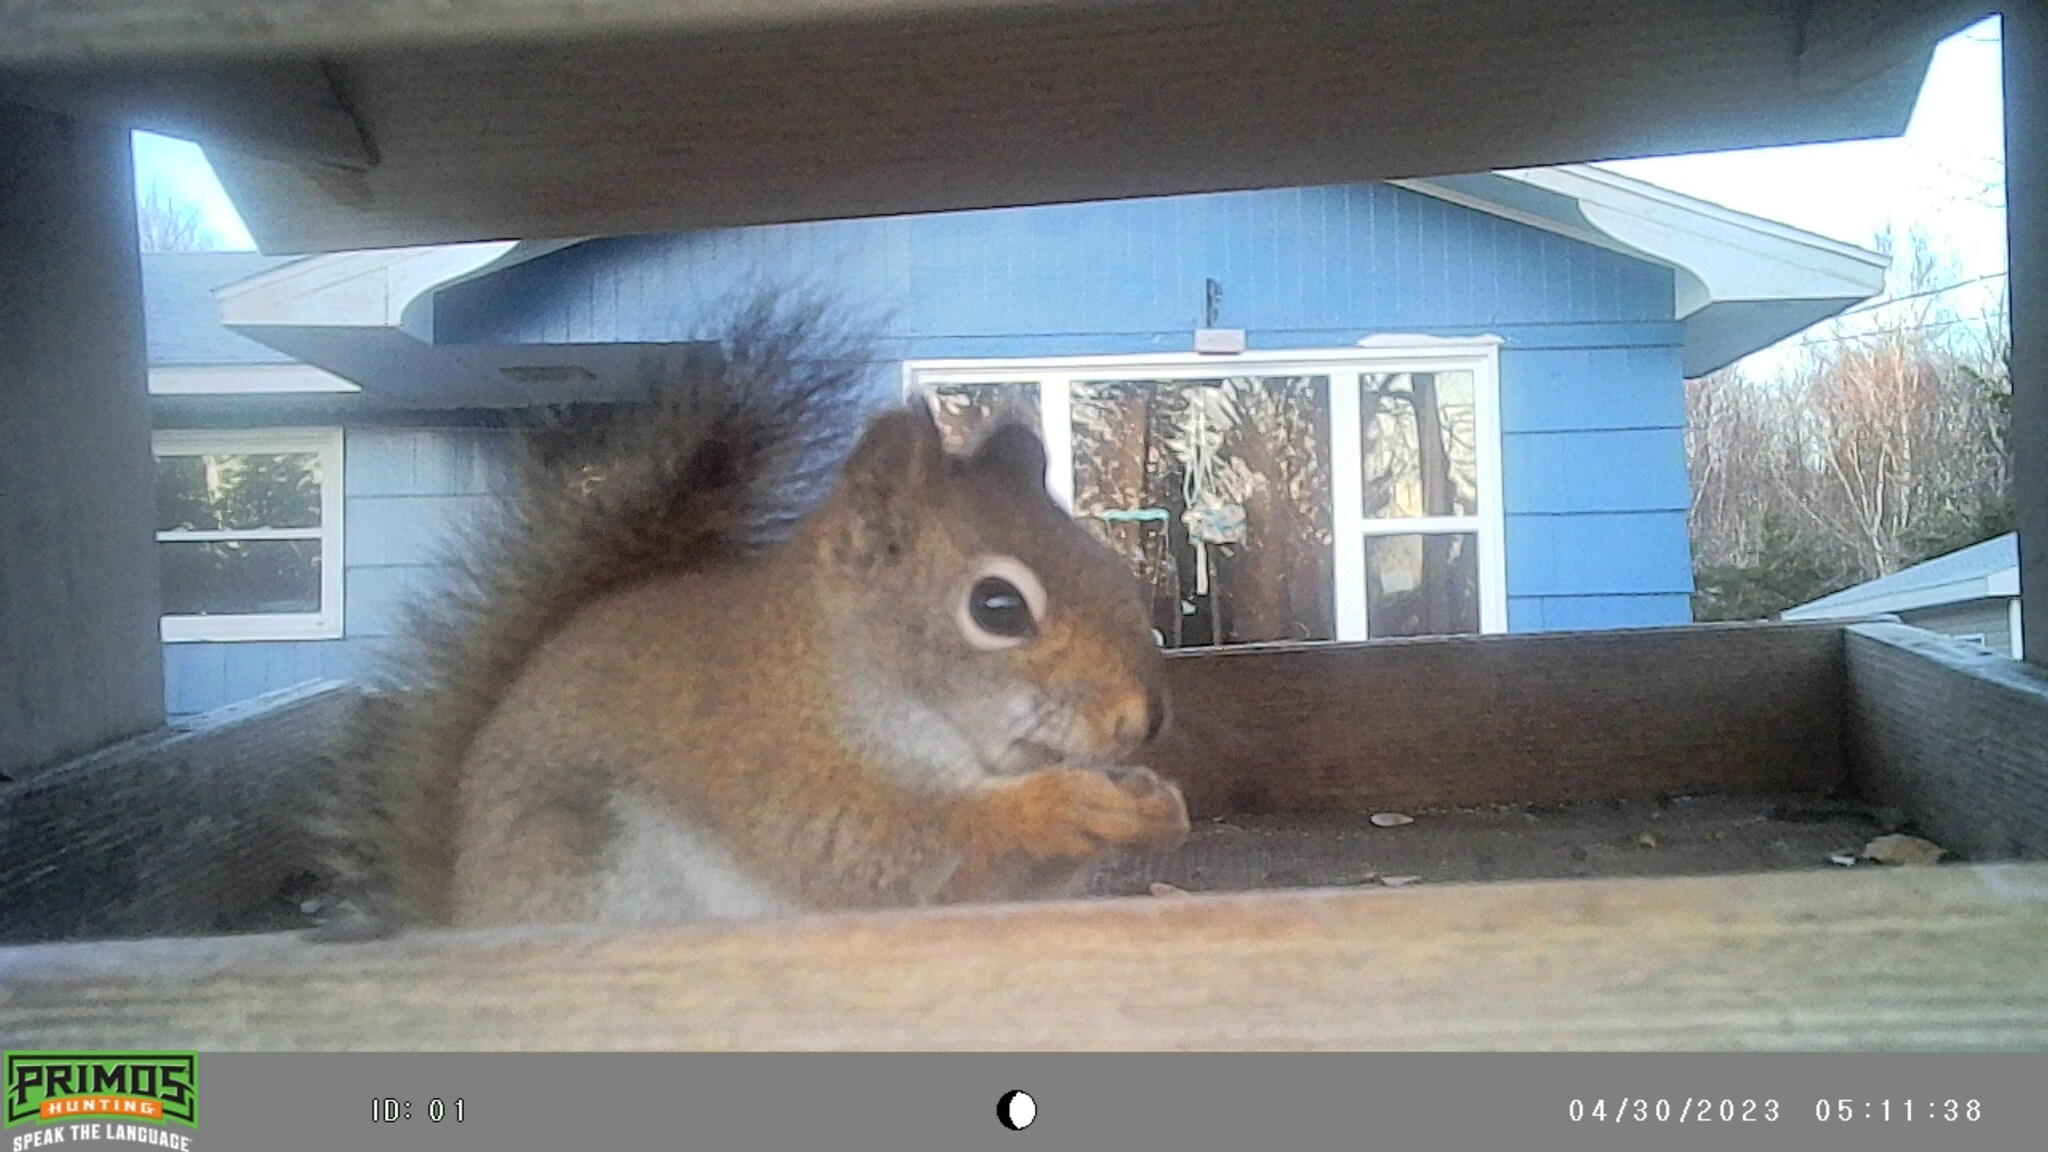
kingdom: Animalia
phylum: Chordata
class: Mammalia
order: Rodentia
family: Sciuridae
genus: Tamiasciurus
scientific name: Tamiasciurus hudsonicus
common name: Red squirrel
